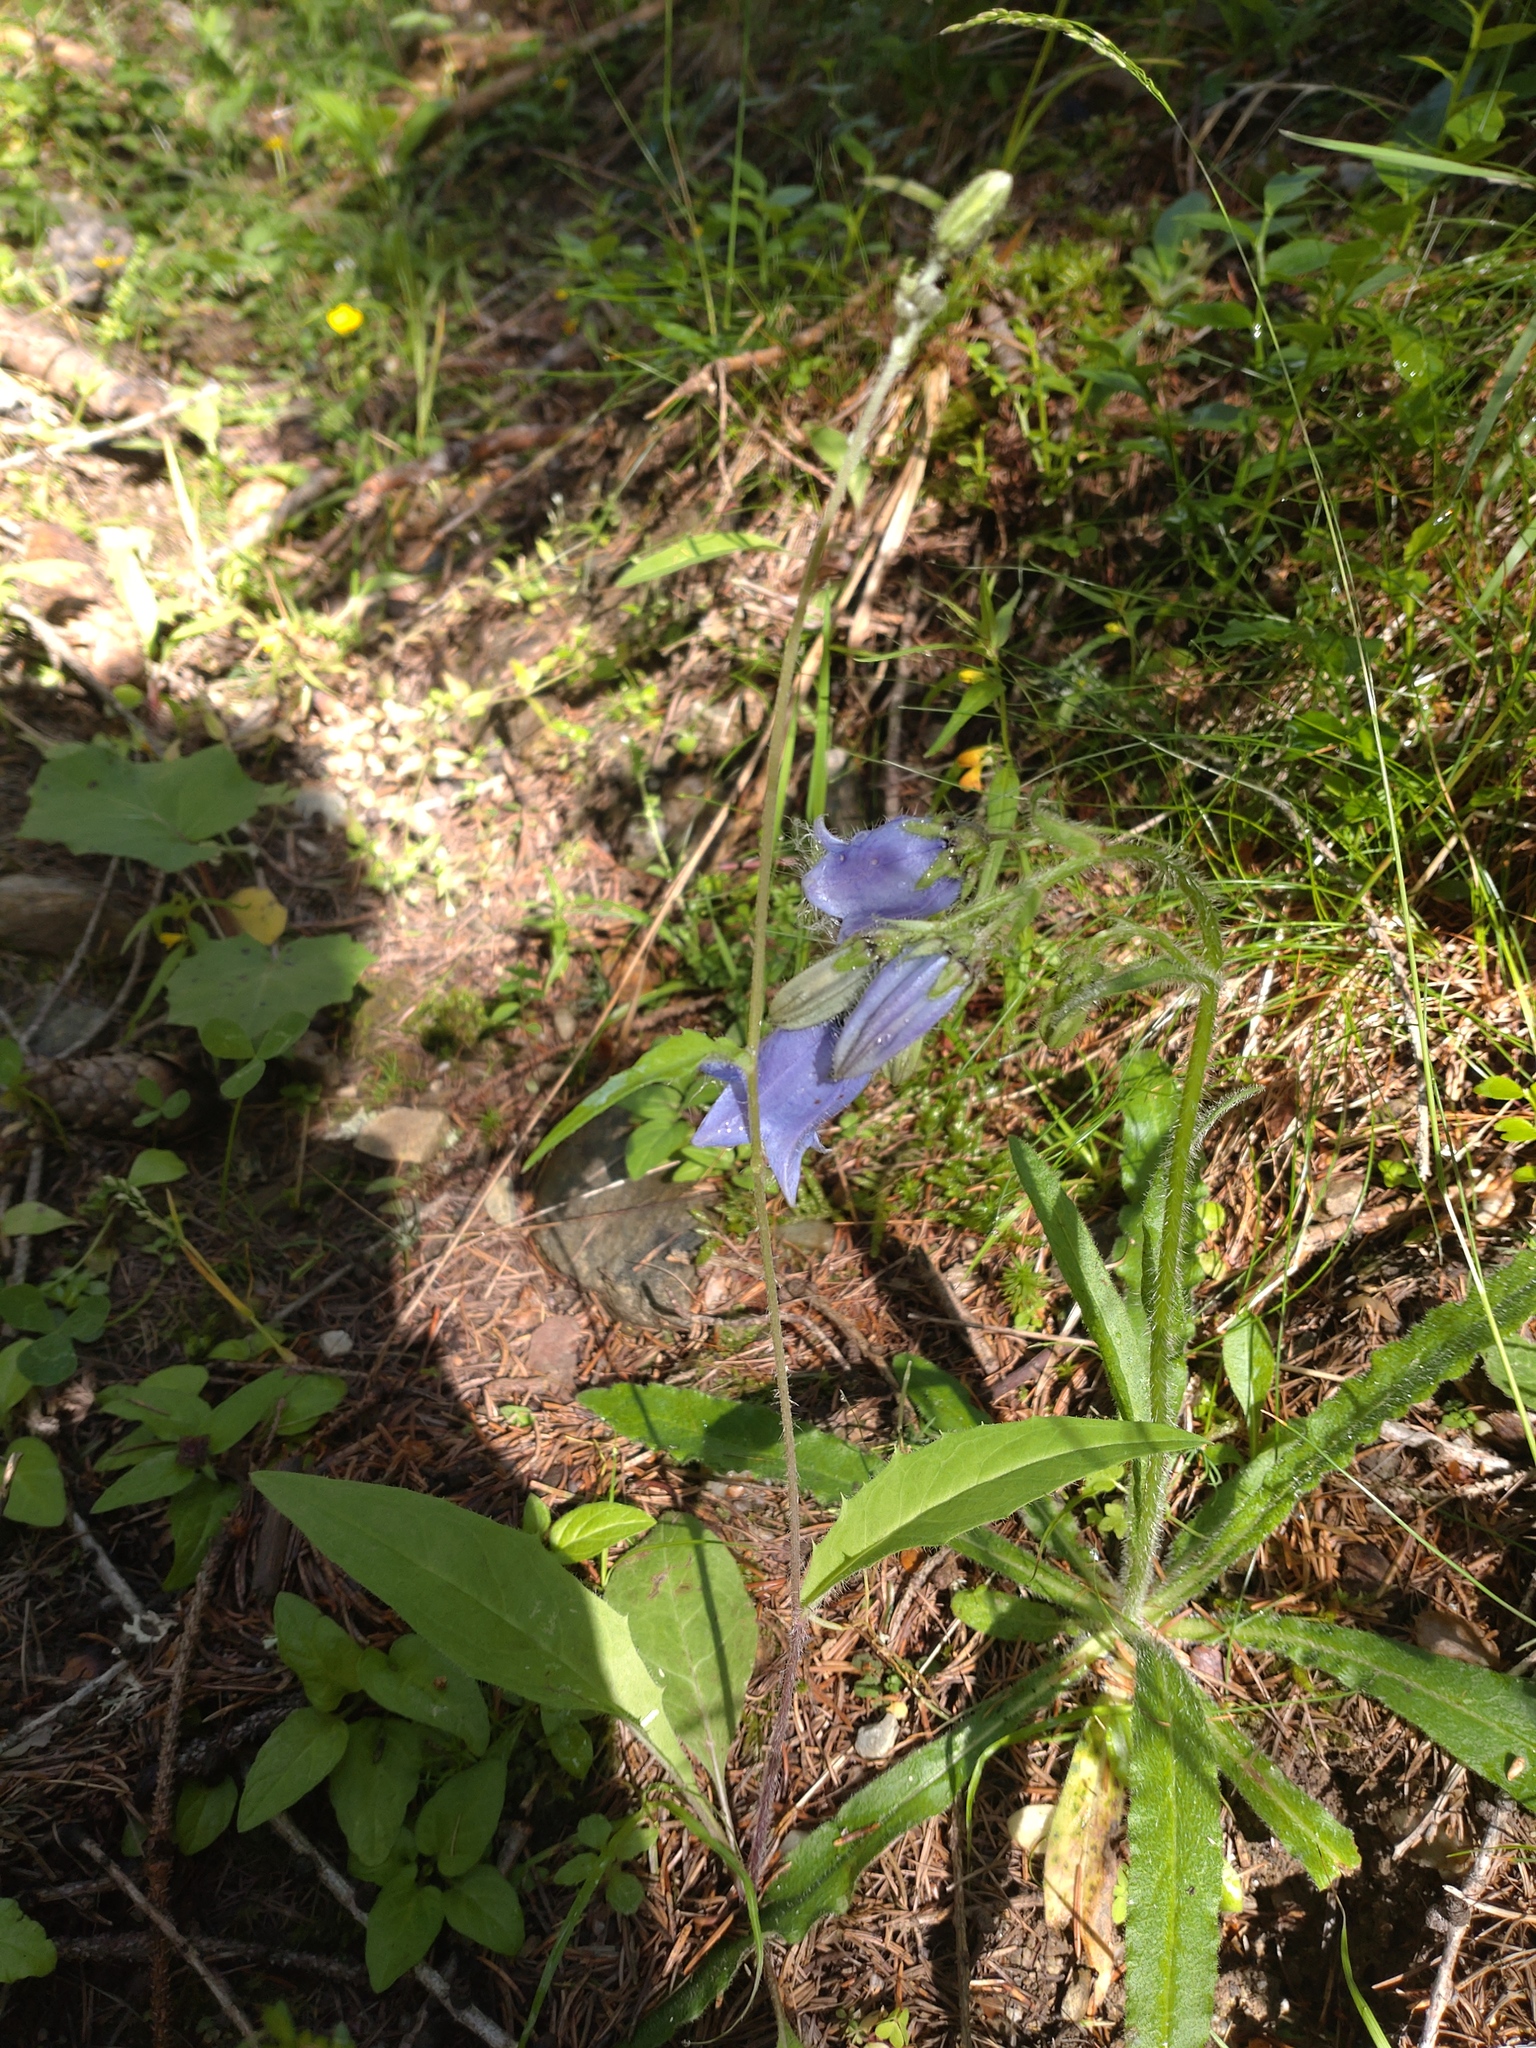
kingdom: Plantae
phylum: Tracheophyta
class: Magnoliopsida
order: Asterales
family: Campanulaceae
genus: Campanula
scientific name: Campanula barbata
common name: Bearded bellflower
